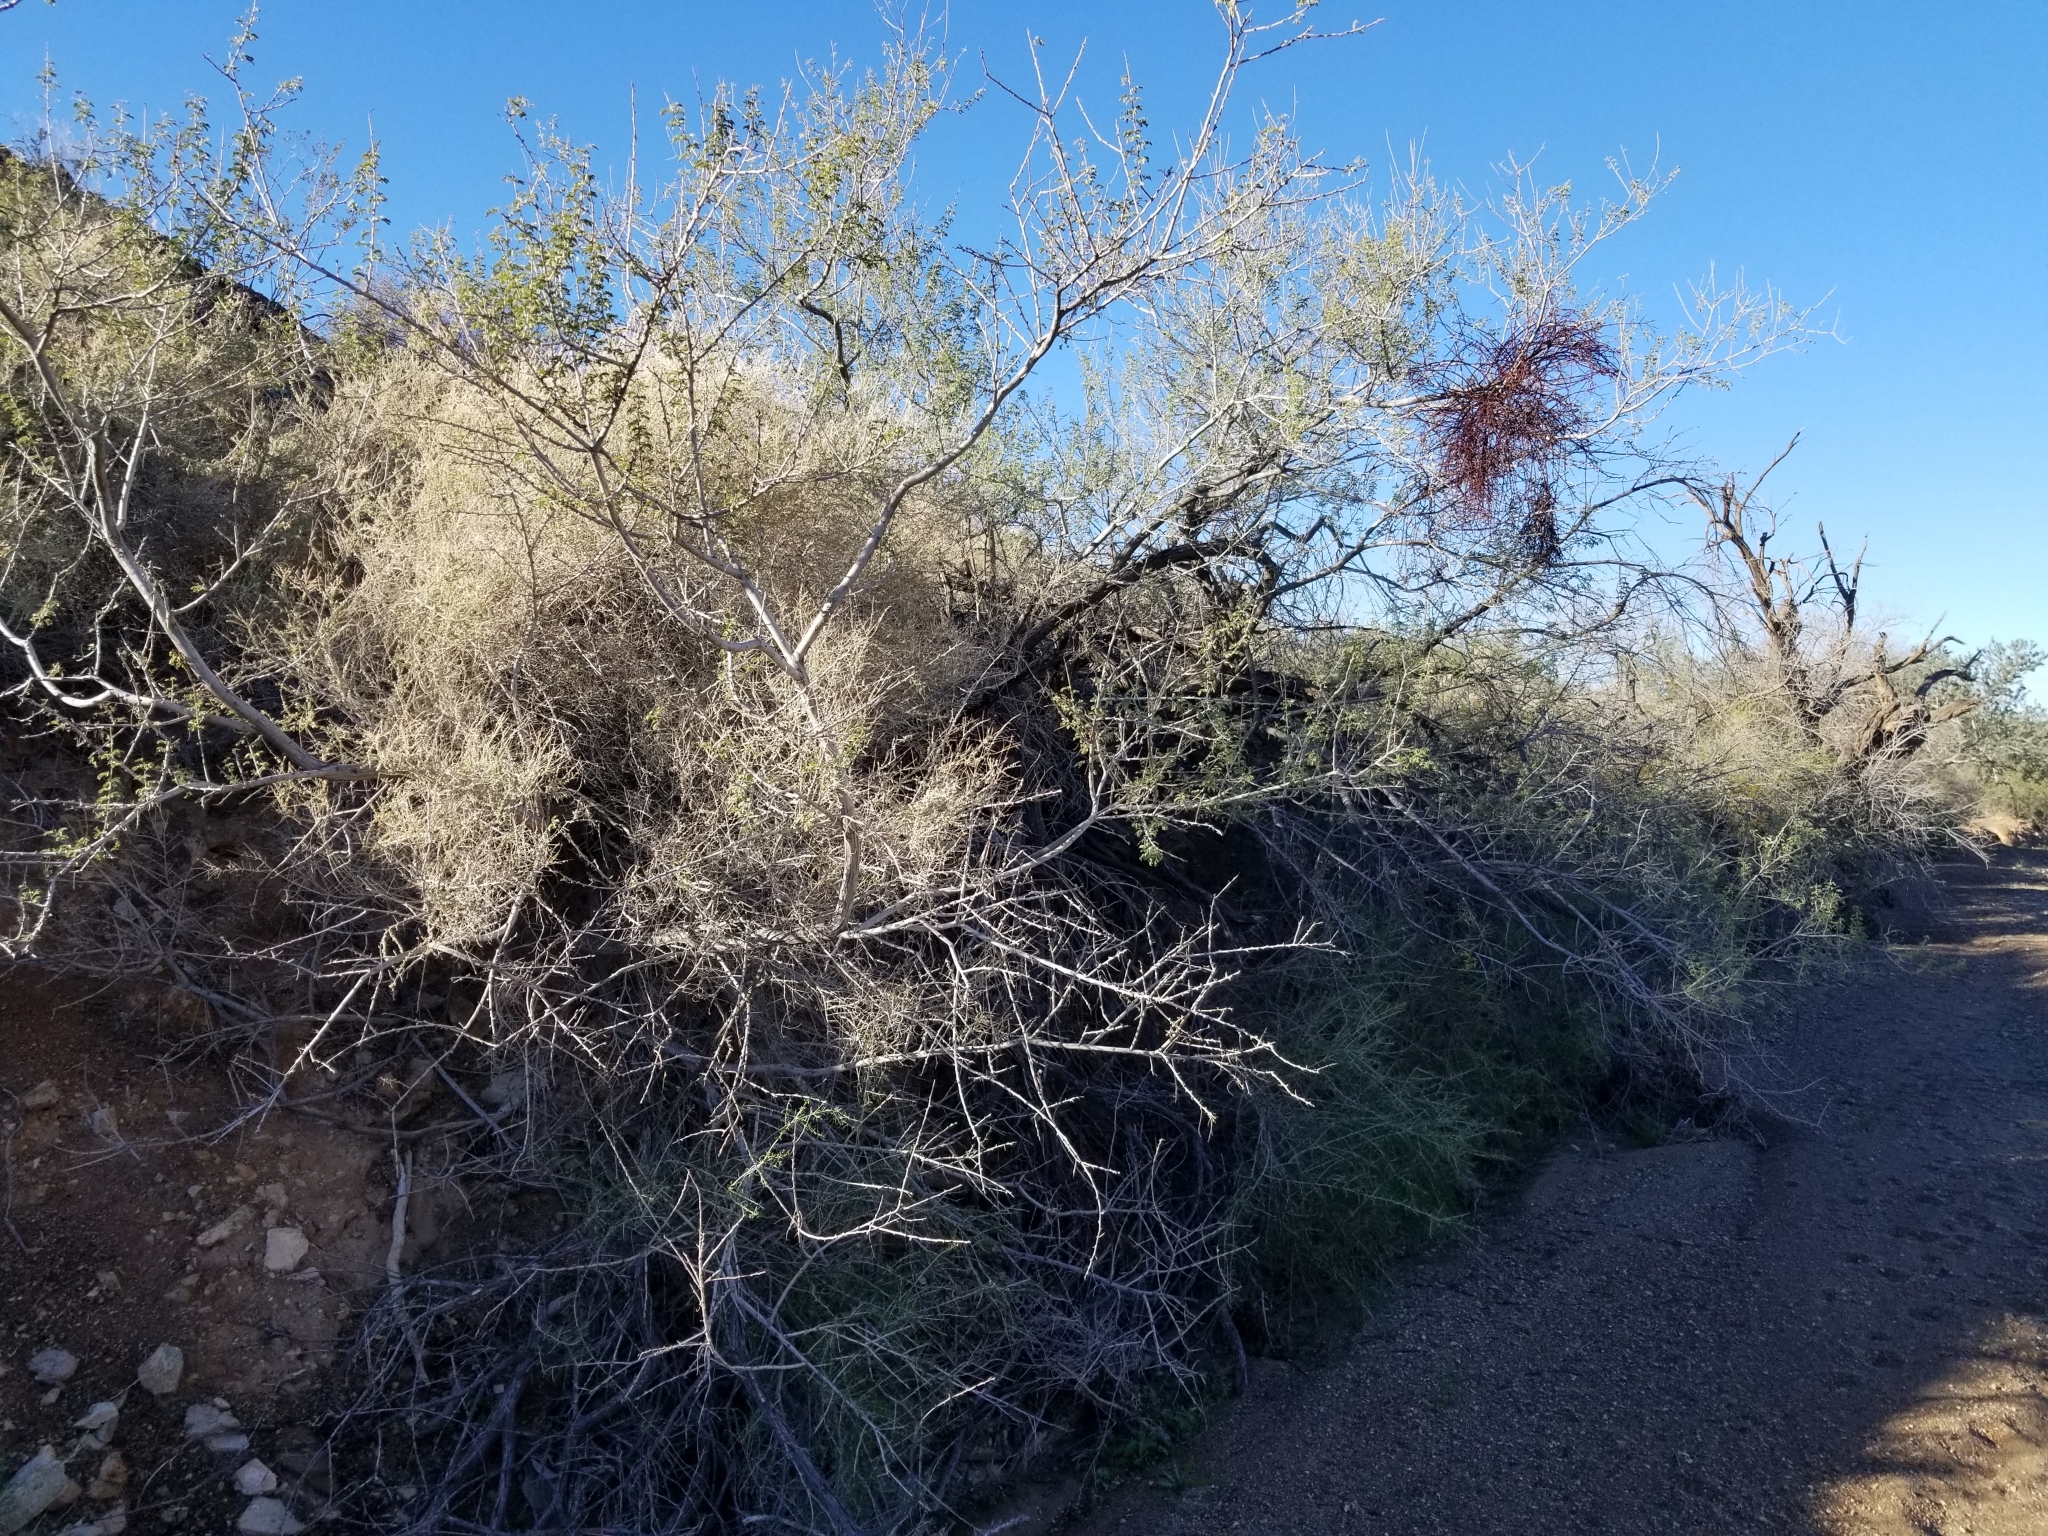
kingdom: Plantae
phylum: Tracheophyta
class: Magnoliopsida
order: Santalales
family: Viscaceae
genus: Phoradendron
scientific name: Phoradendron californicum
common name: Acacia mistletoe
